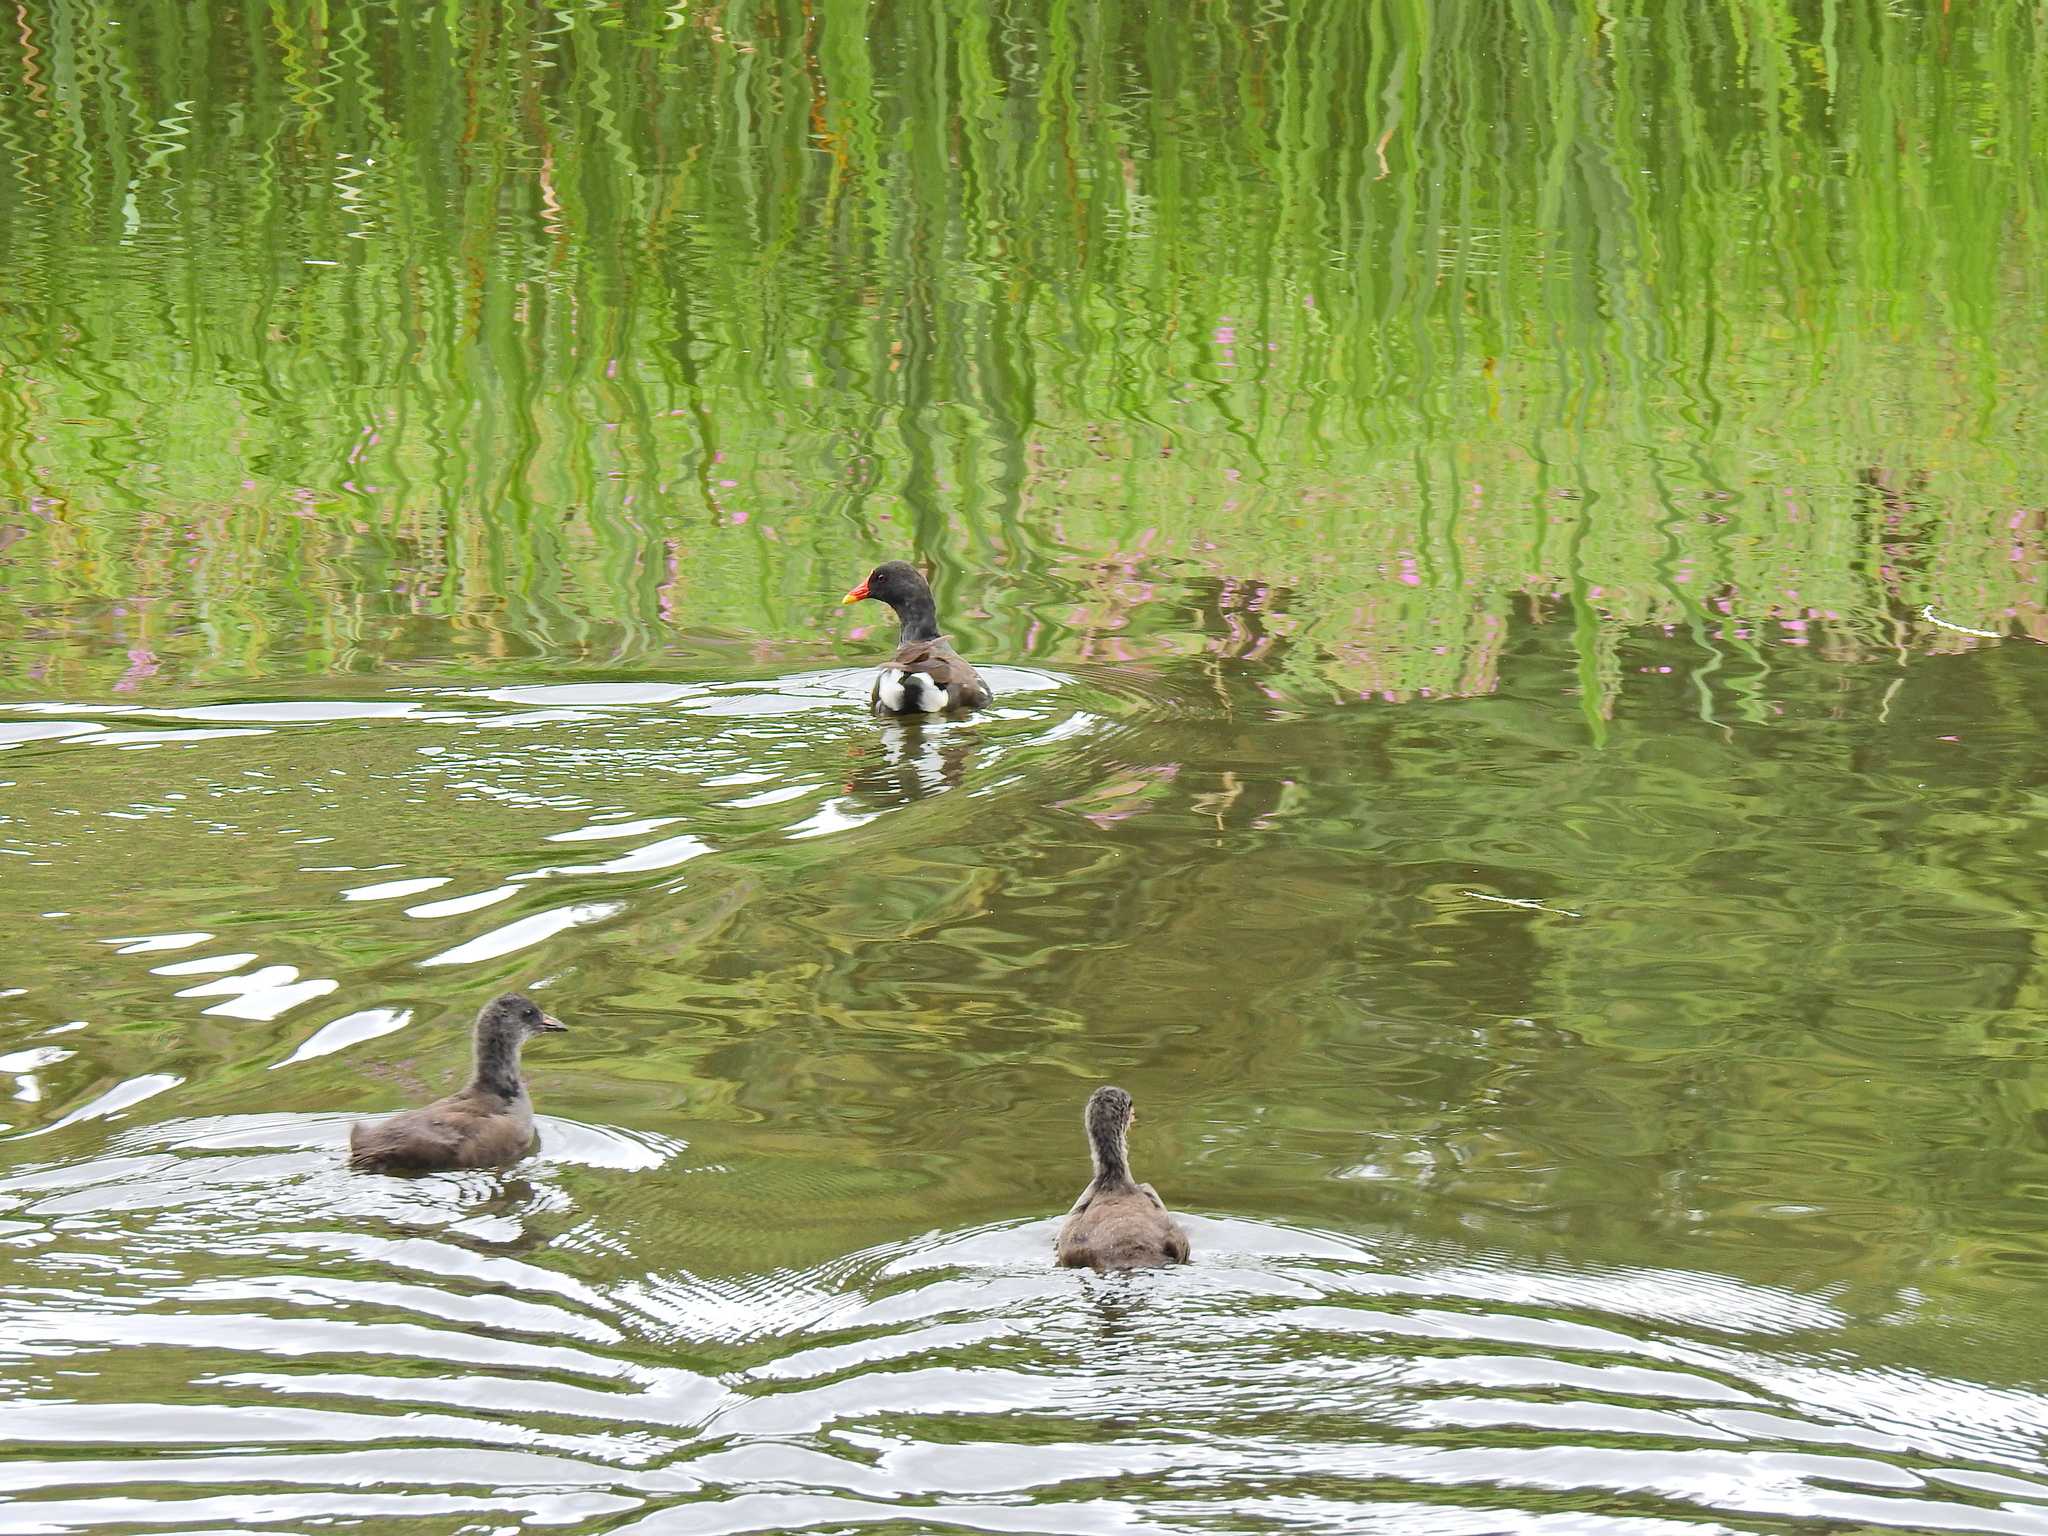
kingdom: Animalia
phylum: Chordata
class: Aves
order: Gruiformes
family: Rallidae
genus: Gallinula
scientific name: Gallinula chloropus
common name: Common moorhen
